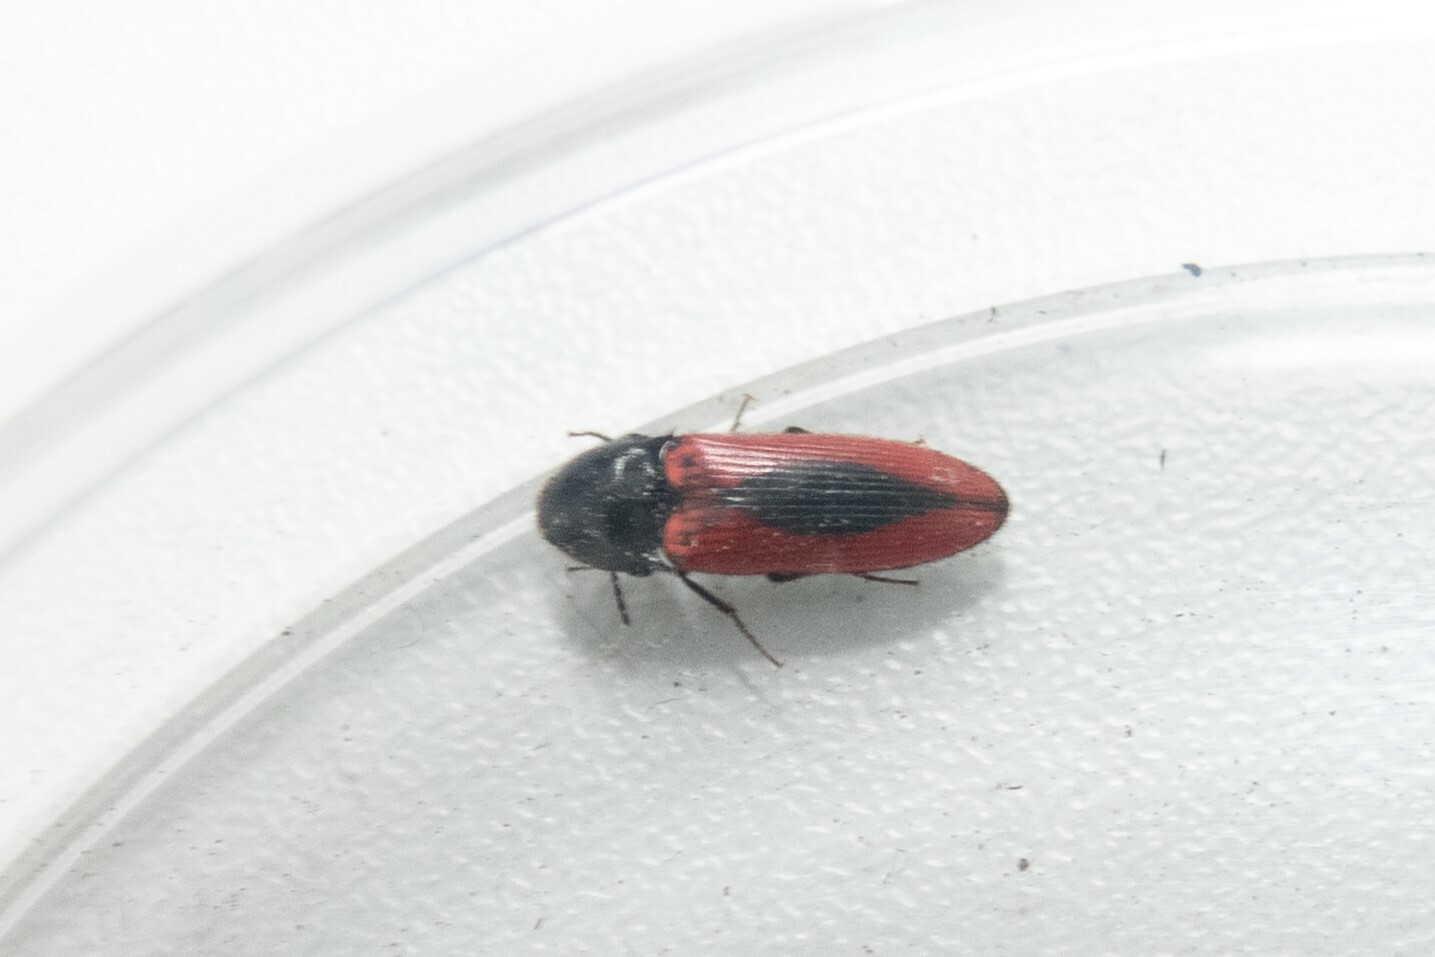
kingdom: Animalia
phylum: Arthropoda
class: Insecta
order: Coleoptera
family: Elateridae
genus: Ampedus
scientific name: Ampedus sanguinolentus
